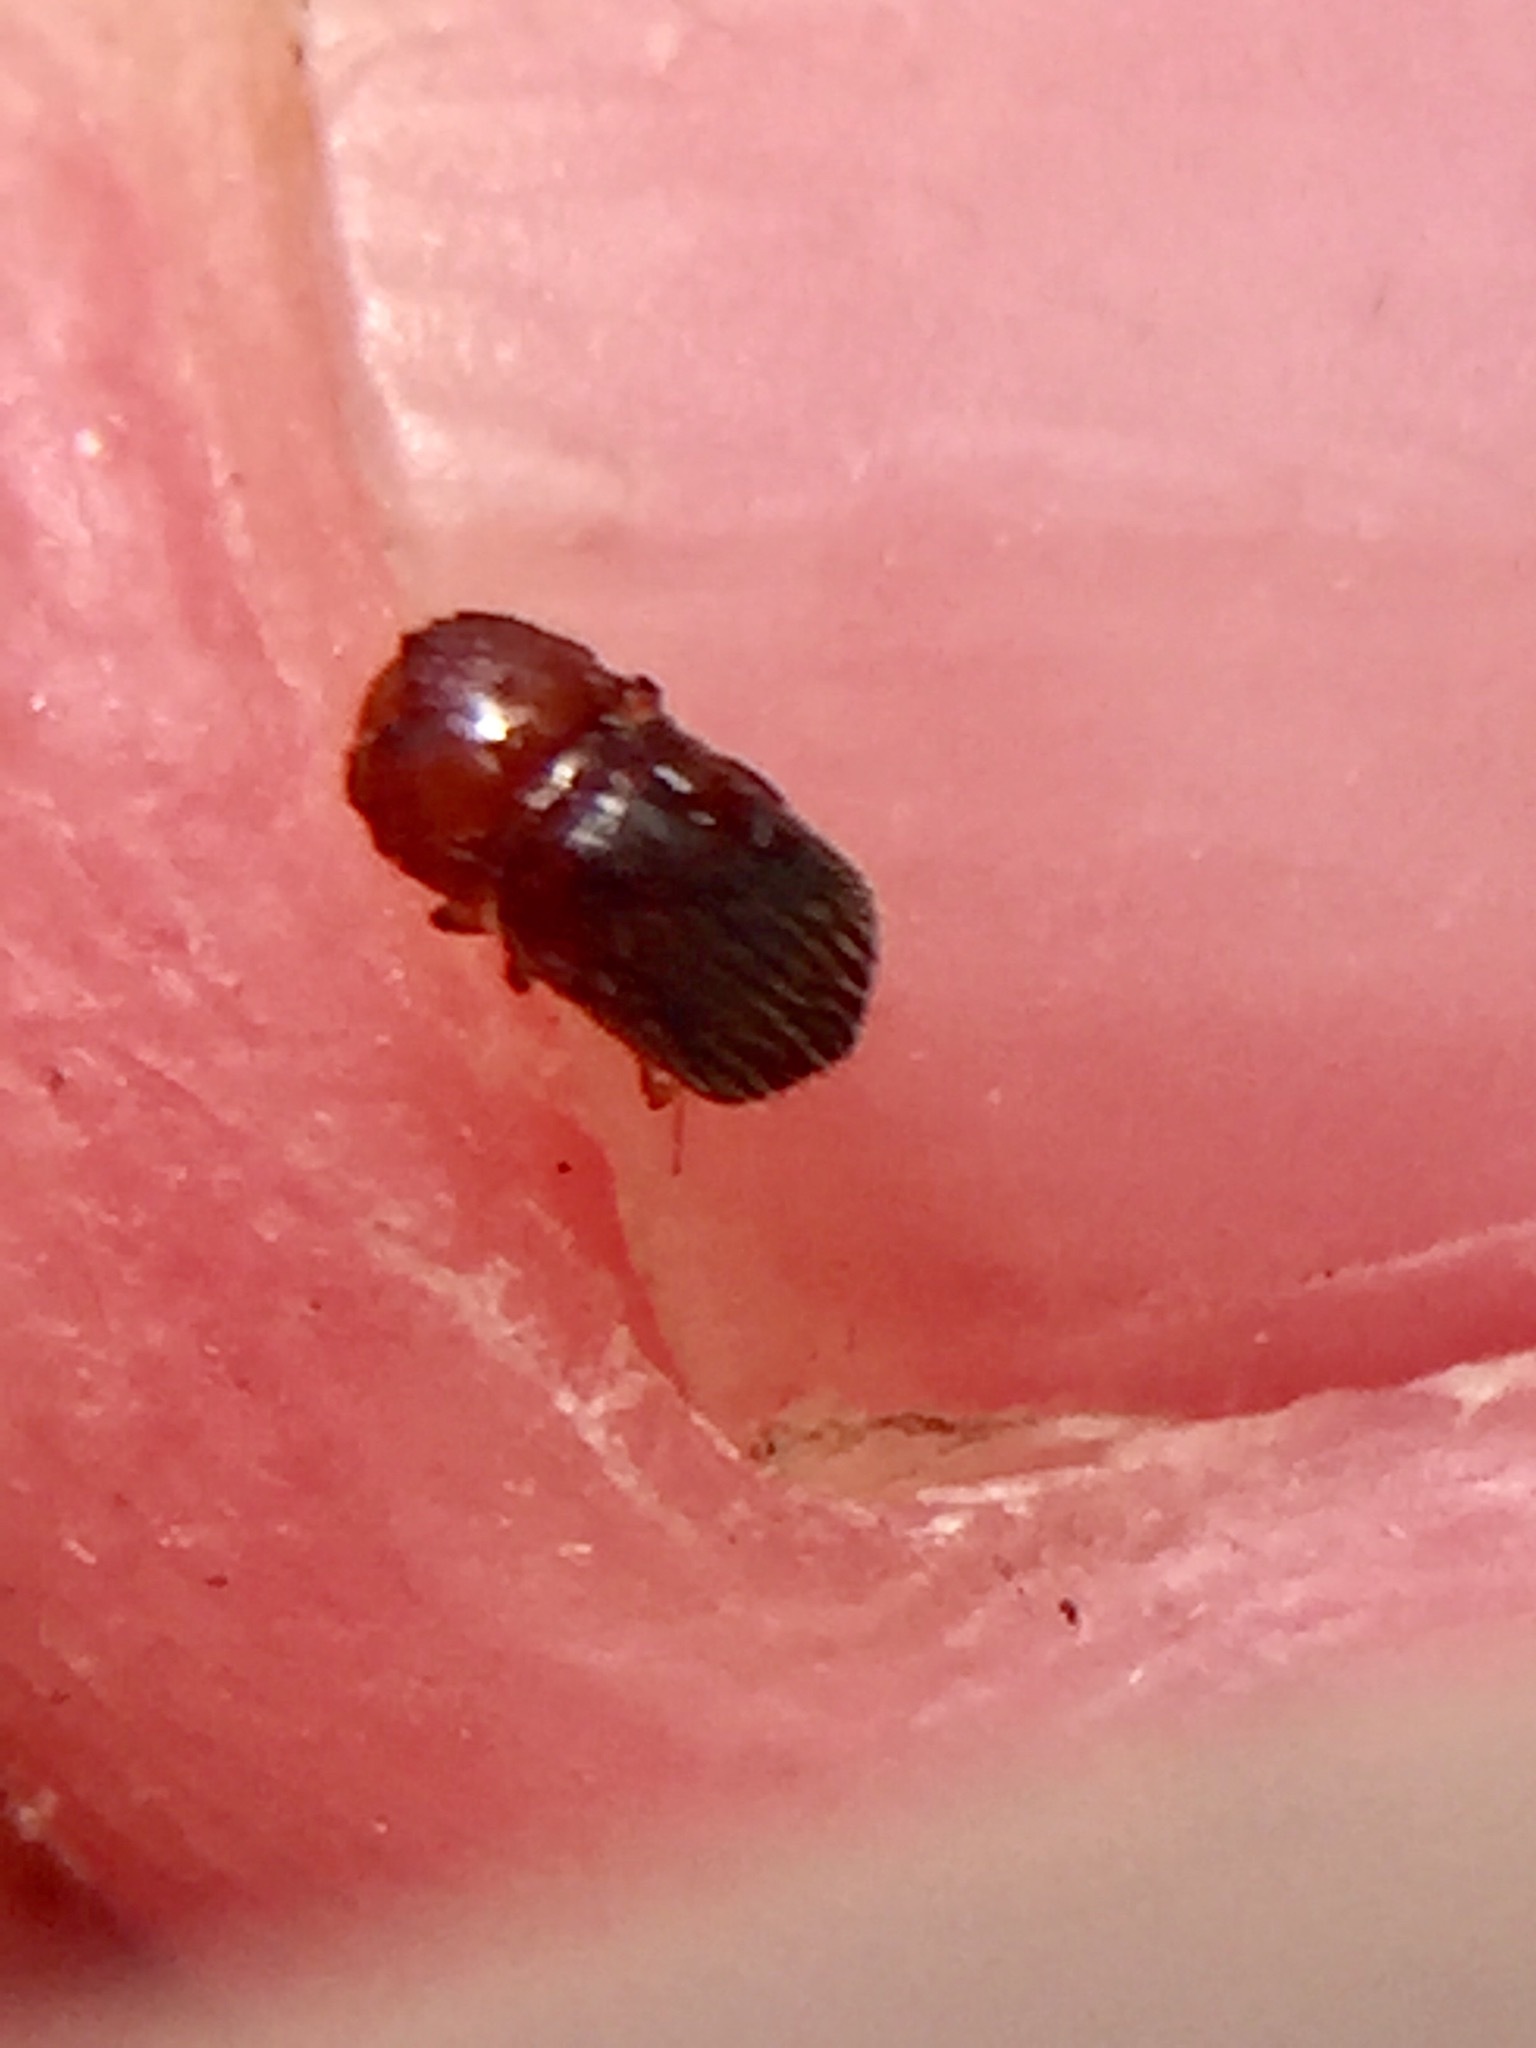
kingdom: Animalia
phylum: Arthropoda
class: Insecta
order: Coleoptera
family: Curculionidae
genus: Xylosandrus
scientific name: Xylosandrus crassiusculus
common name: Granulate ambrosia beetle
